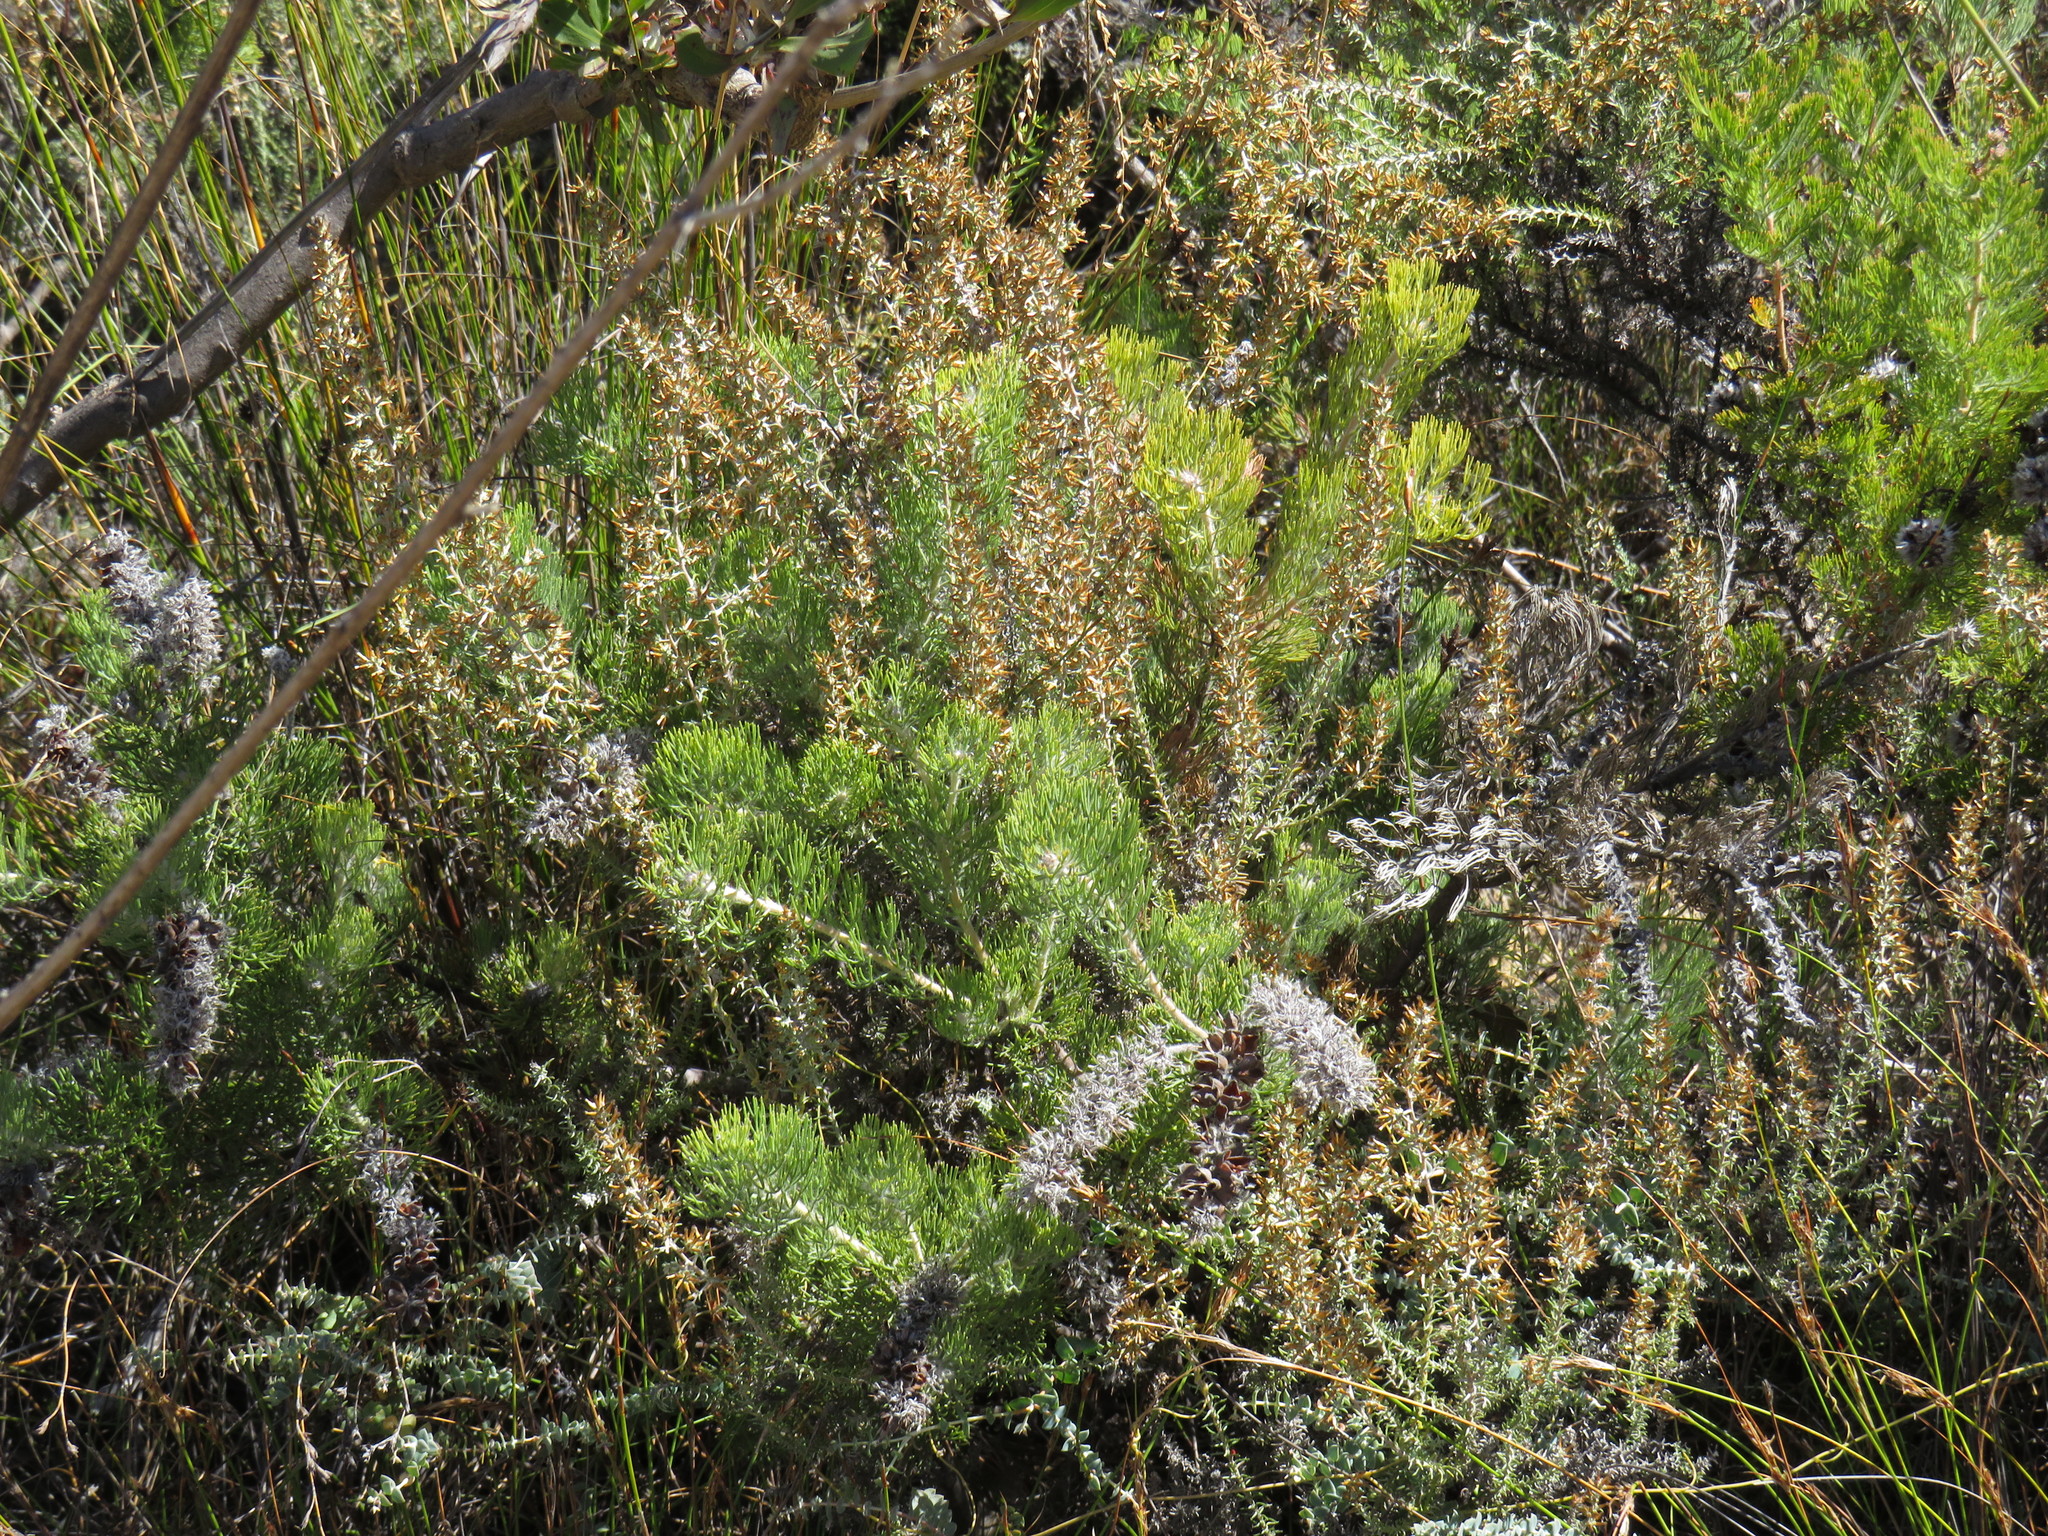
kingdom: Plantae
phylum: Tracheophyta
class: Magnoliopsida
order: Proteales
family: Proteaceae
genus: Paranomus
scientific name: Paranomus lagopus
